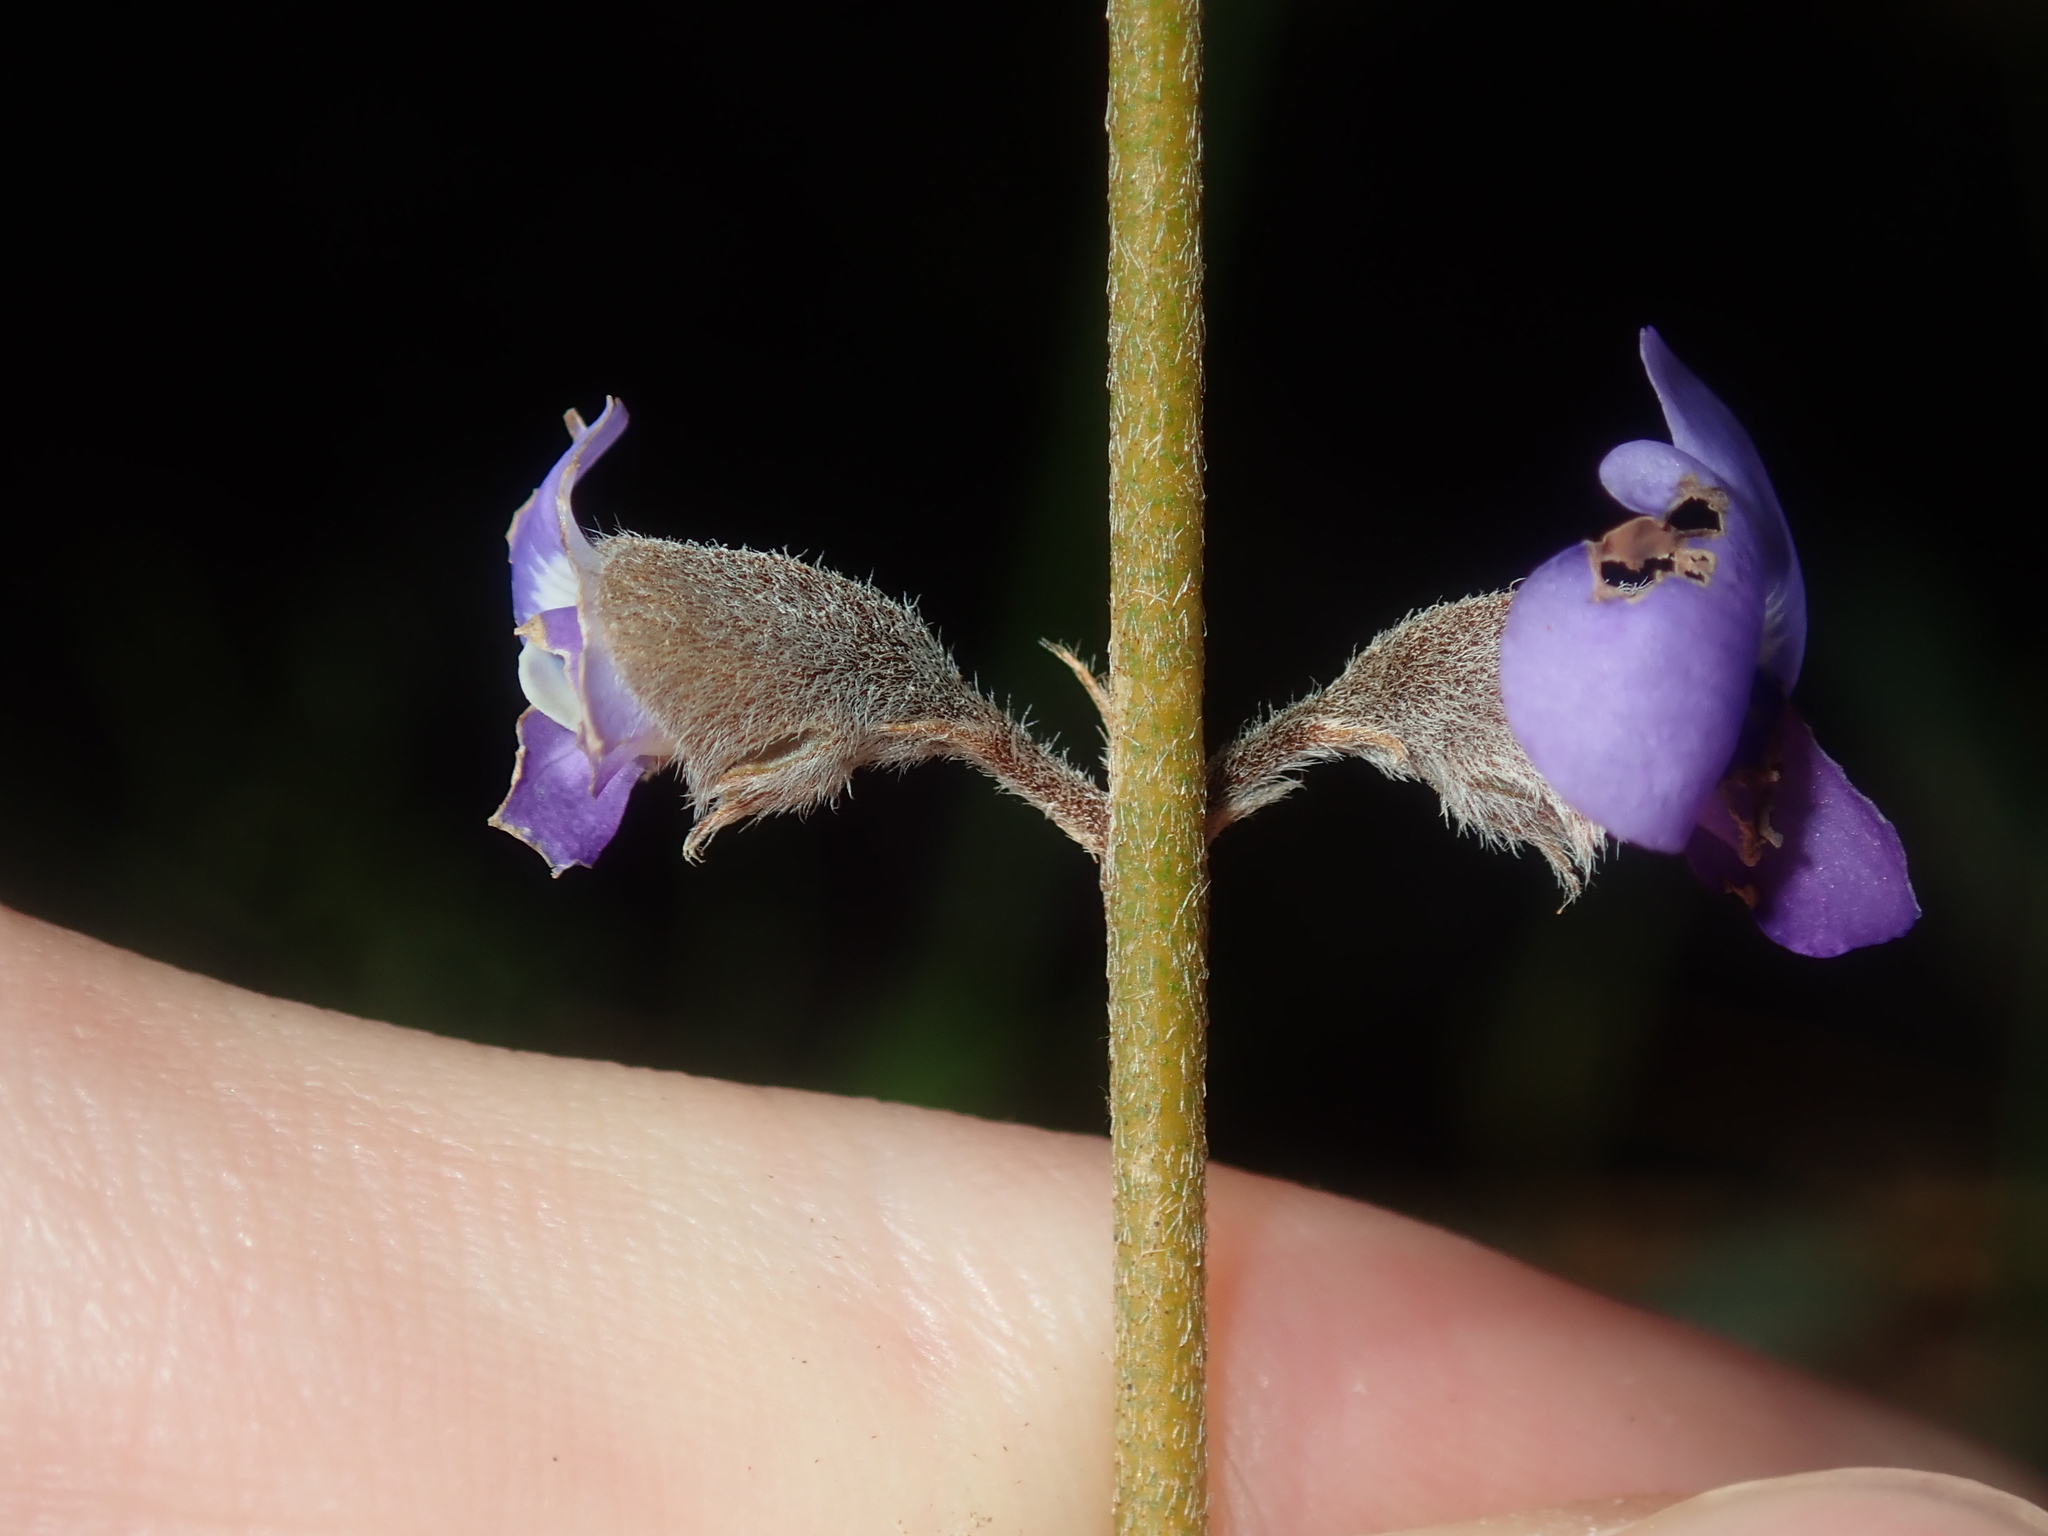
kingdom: Plantae
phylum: Tracheophyta
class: Magnoliopsida
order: Fabales
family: Fabaceae
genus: Hovea
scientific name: Hovea trisperma
